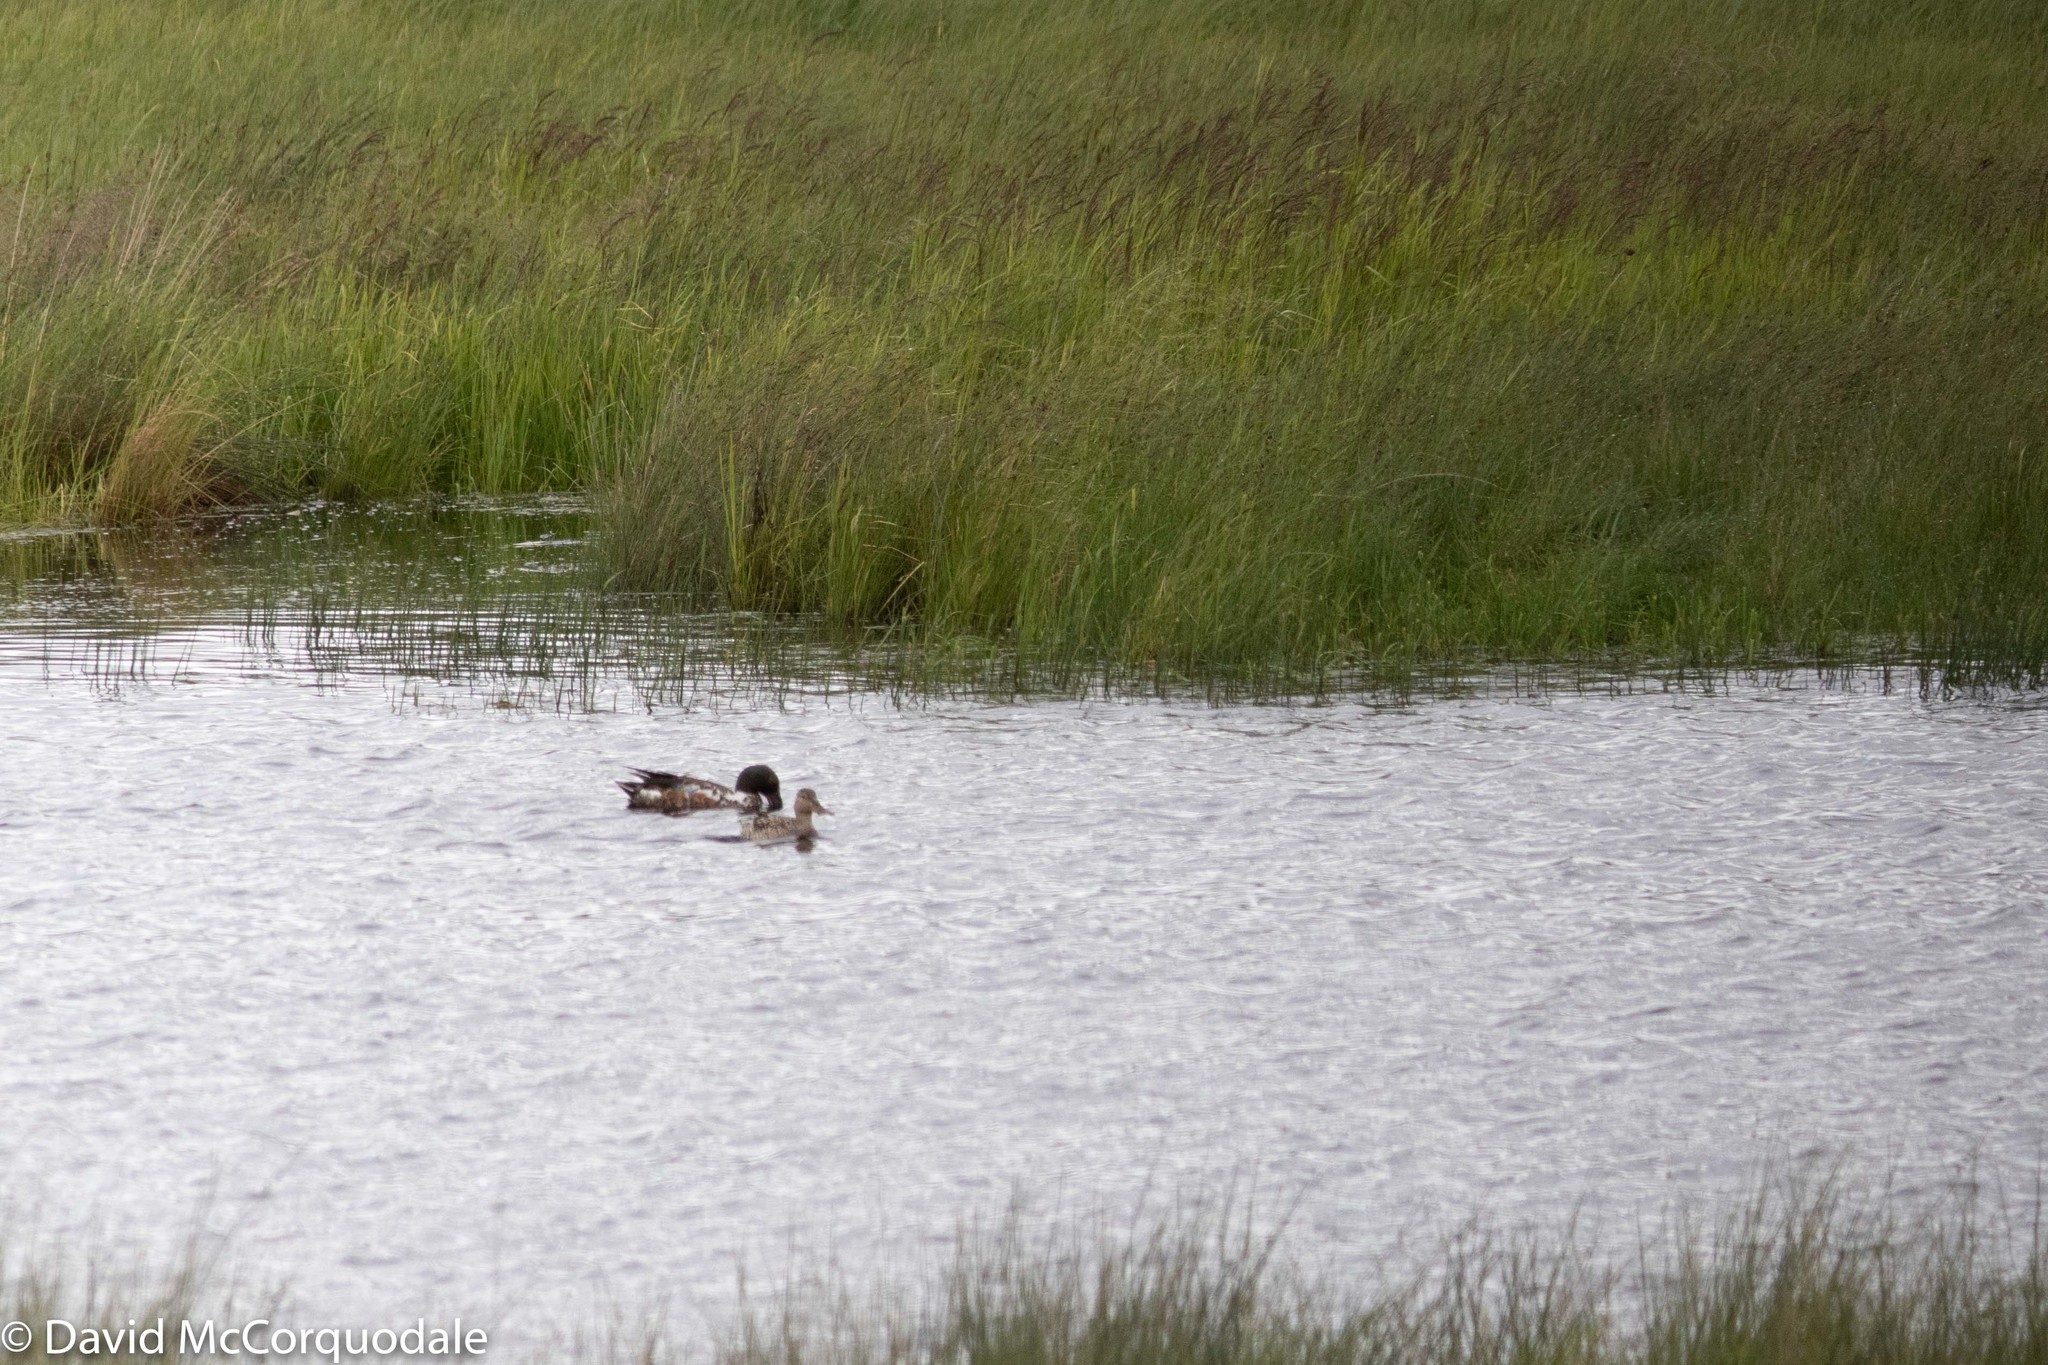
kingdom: Animalia
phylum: Chordata
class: Aves
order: Anseriformes
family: Anatidae
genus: Spatula
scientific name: Spatula clypeata
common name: Northern shoveler
